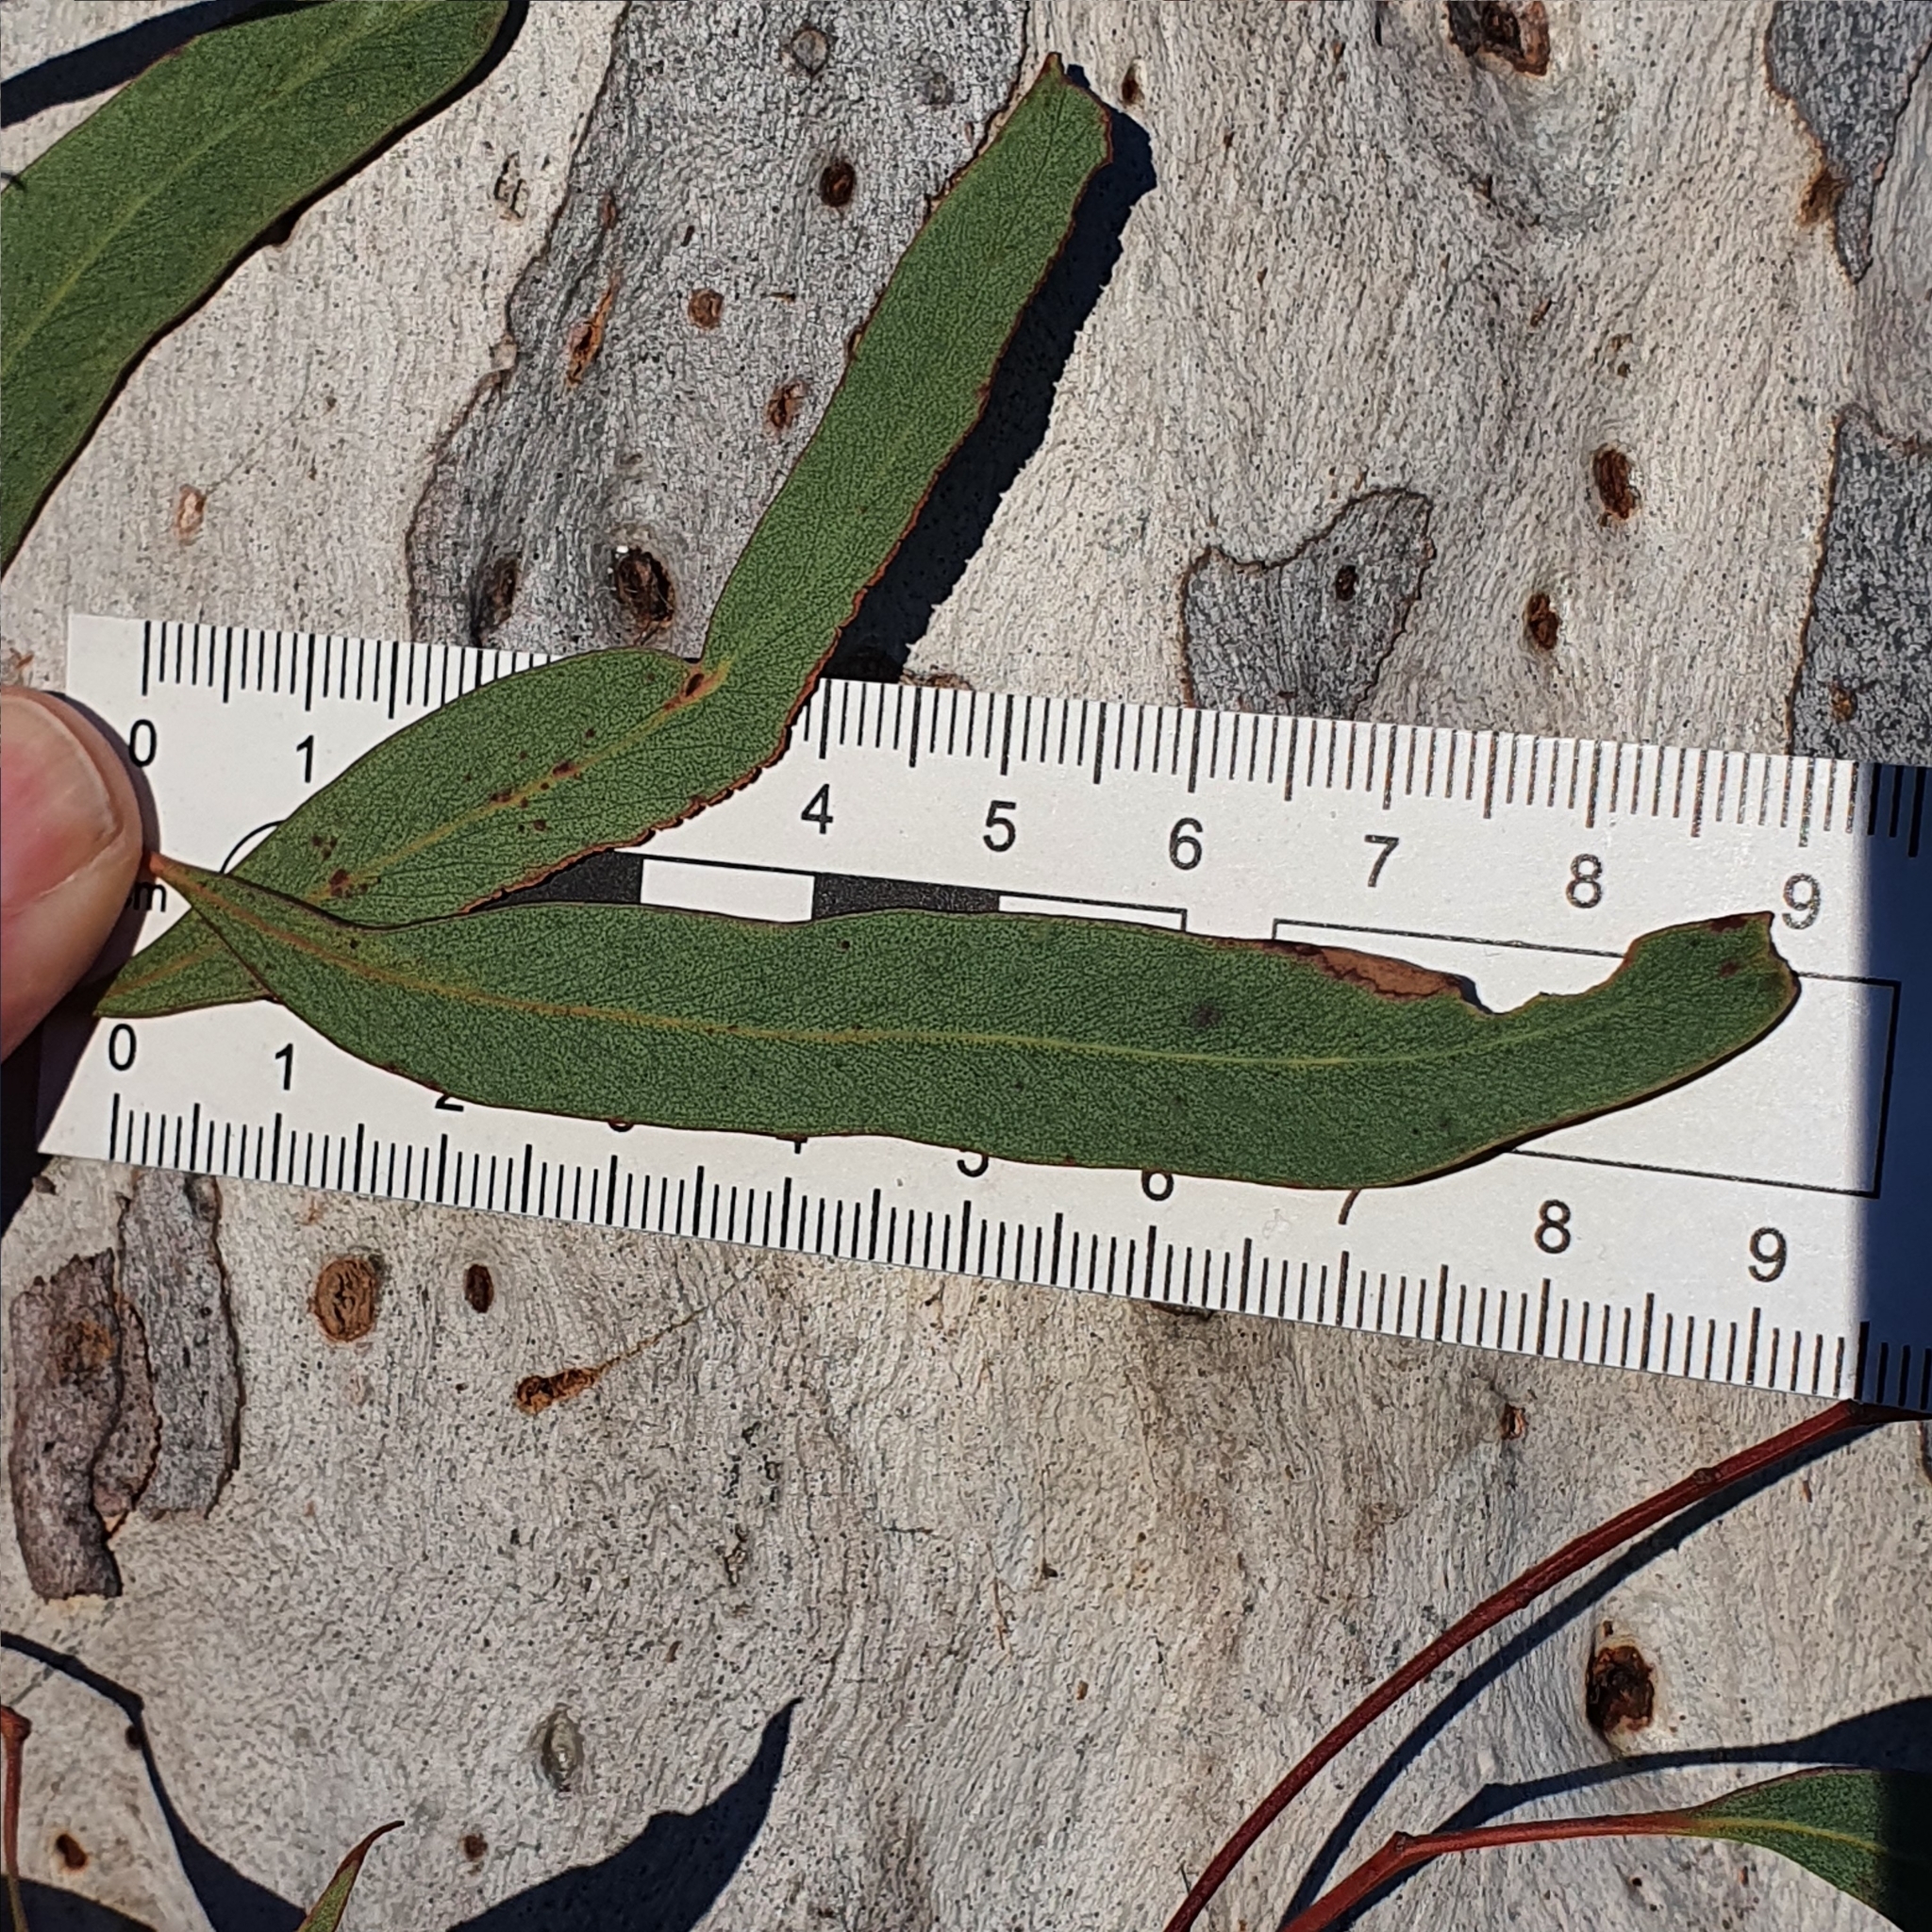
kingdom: Plantae
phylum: Tracheophyta
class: Magnoliopsida
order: Myrtales
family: Myrtaceae
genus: Eucalyptus
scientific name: Eucalyptus mannifera
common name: Manna gum
